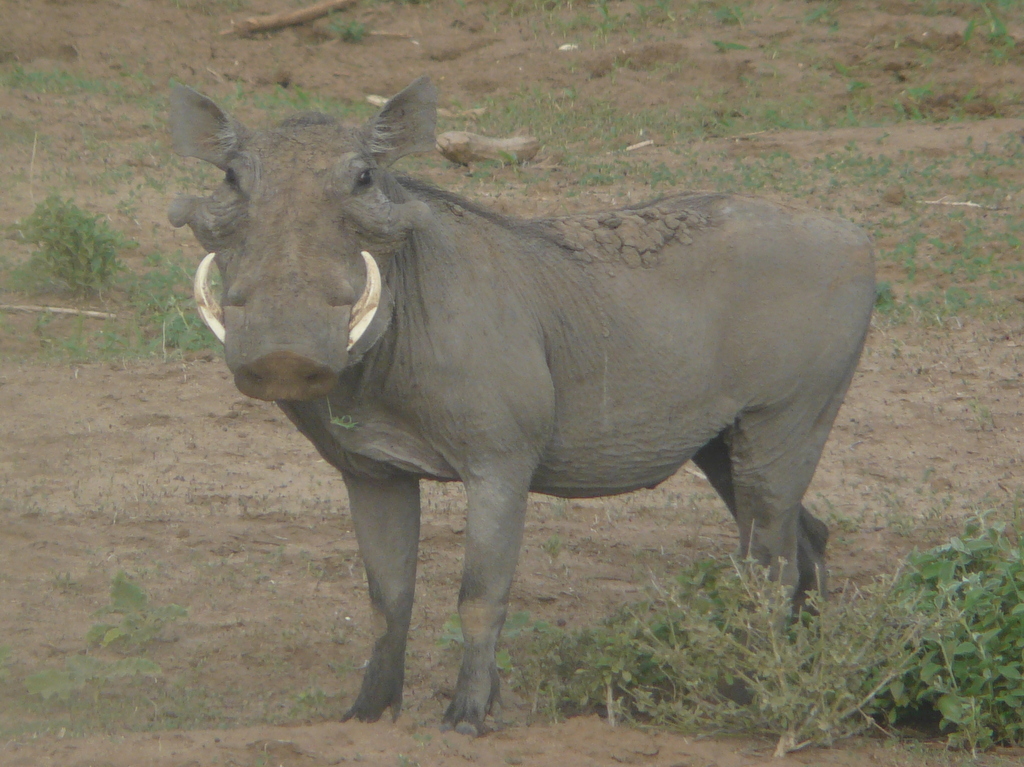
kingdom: Animalia
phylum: Chordata
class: Mammalia
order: Artiodactyla
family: Suidae
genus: Phacochoerus
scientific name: Phacochoerus aethiopicus
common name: Desert warthog
